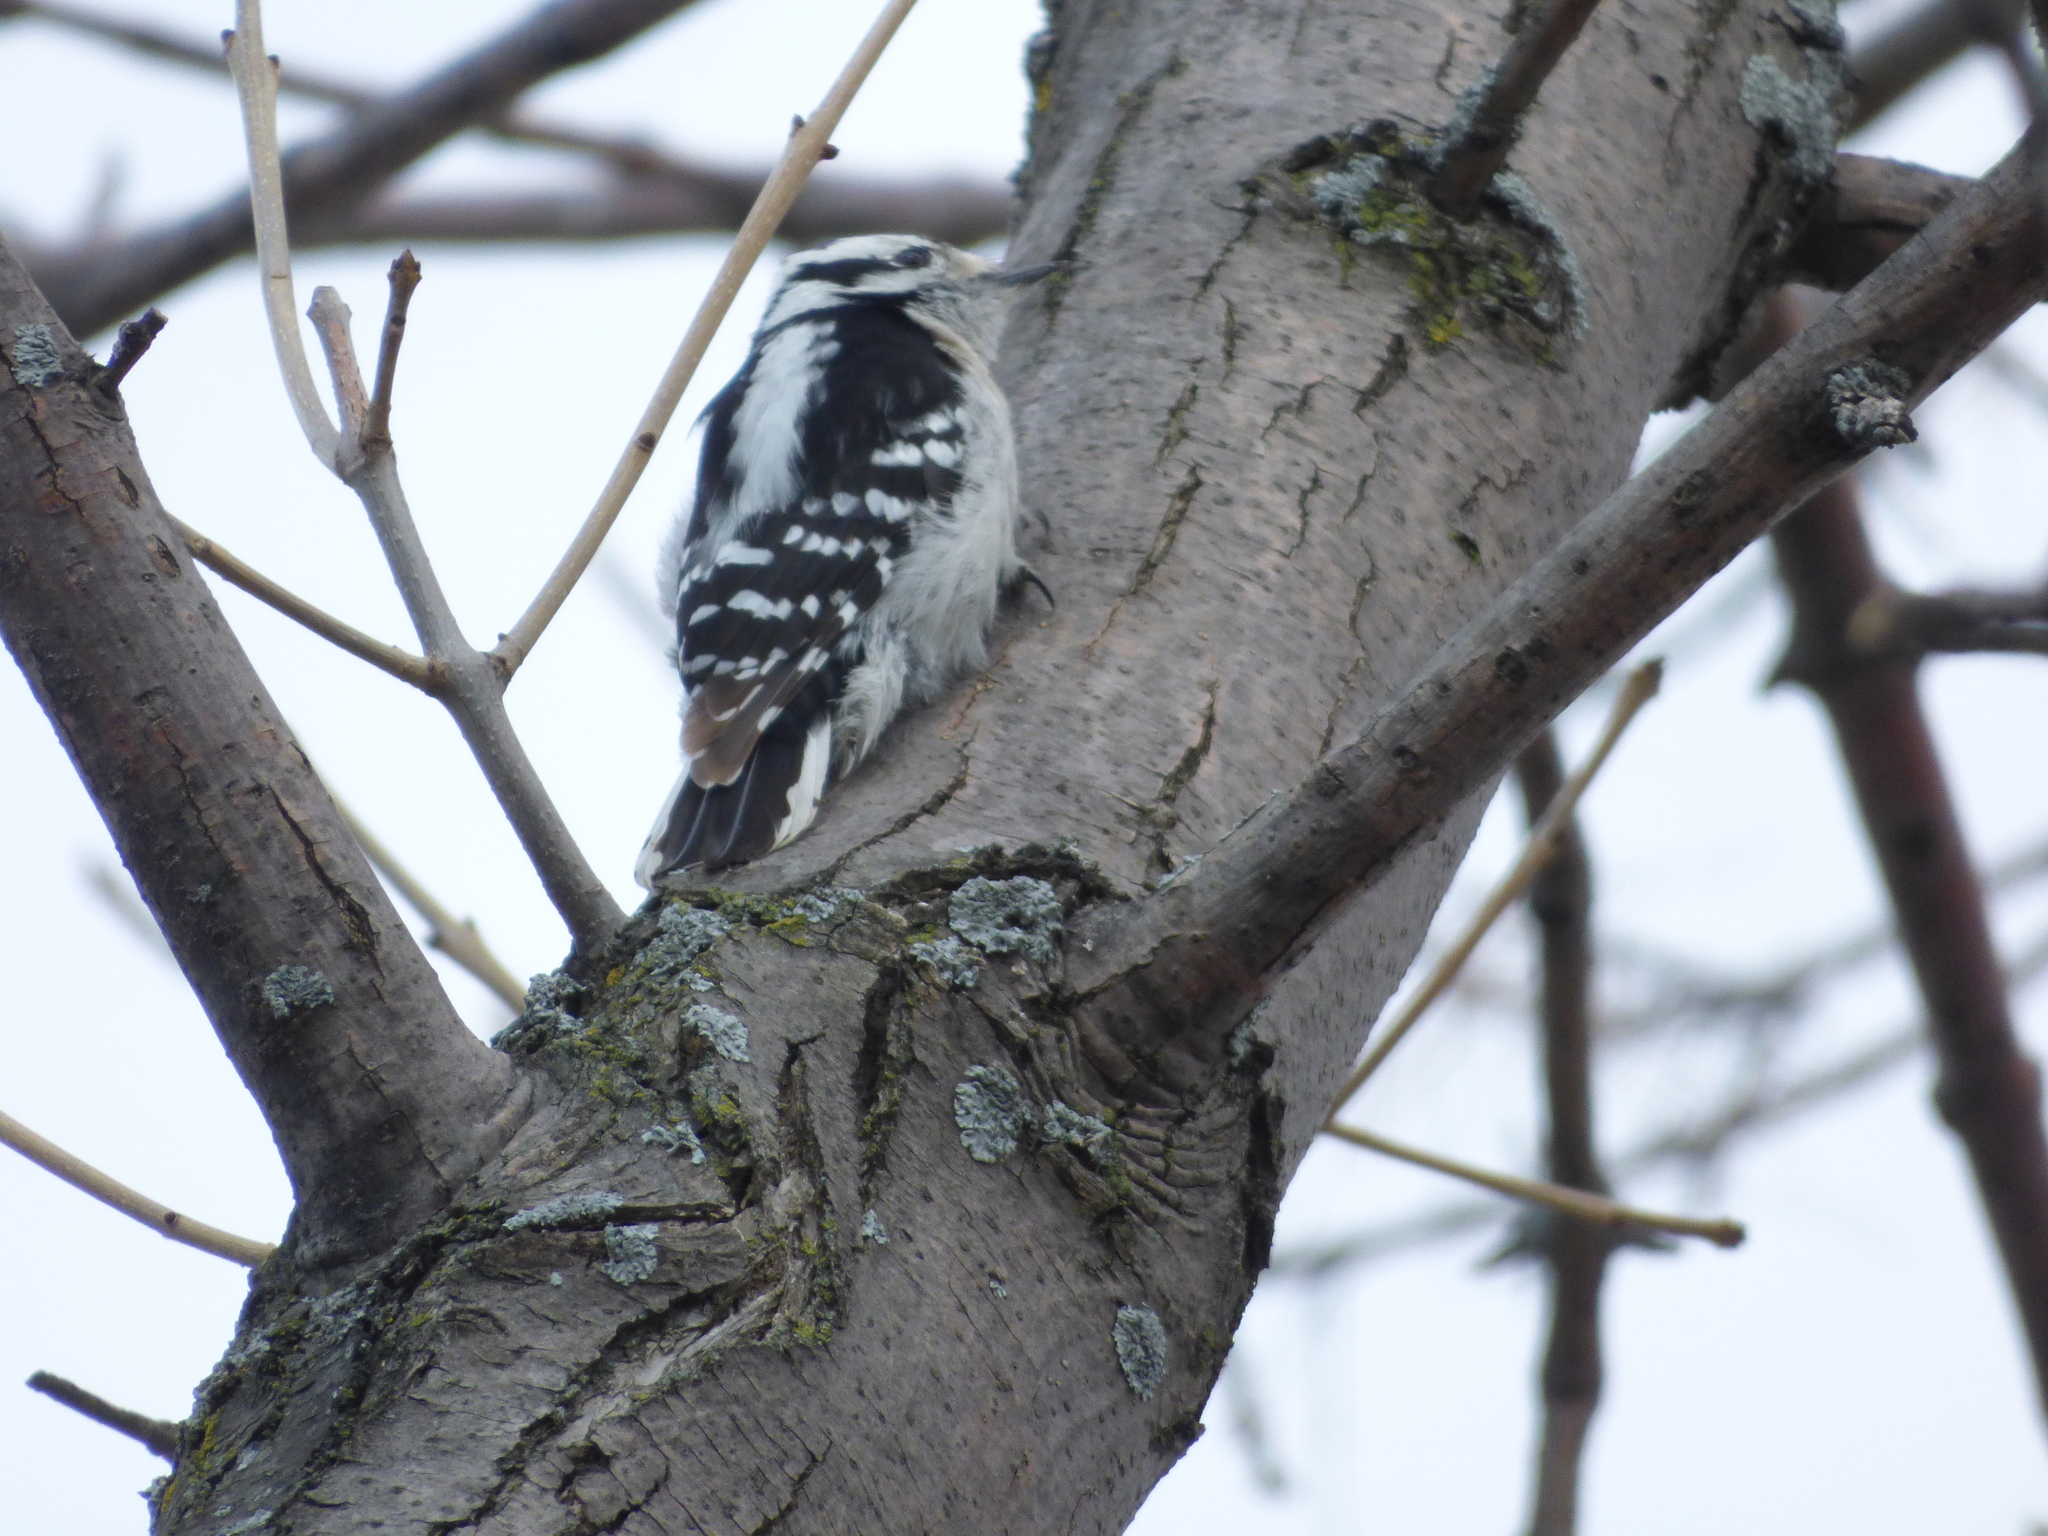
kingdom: Animalia
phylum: Chordata
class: Aves
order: Piciformes
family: Picidae
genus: Dryobates
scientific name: Dryobates pubescens
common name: Downy woodpecker
